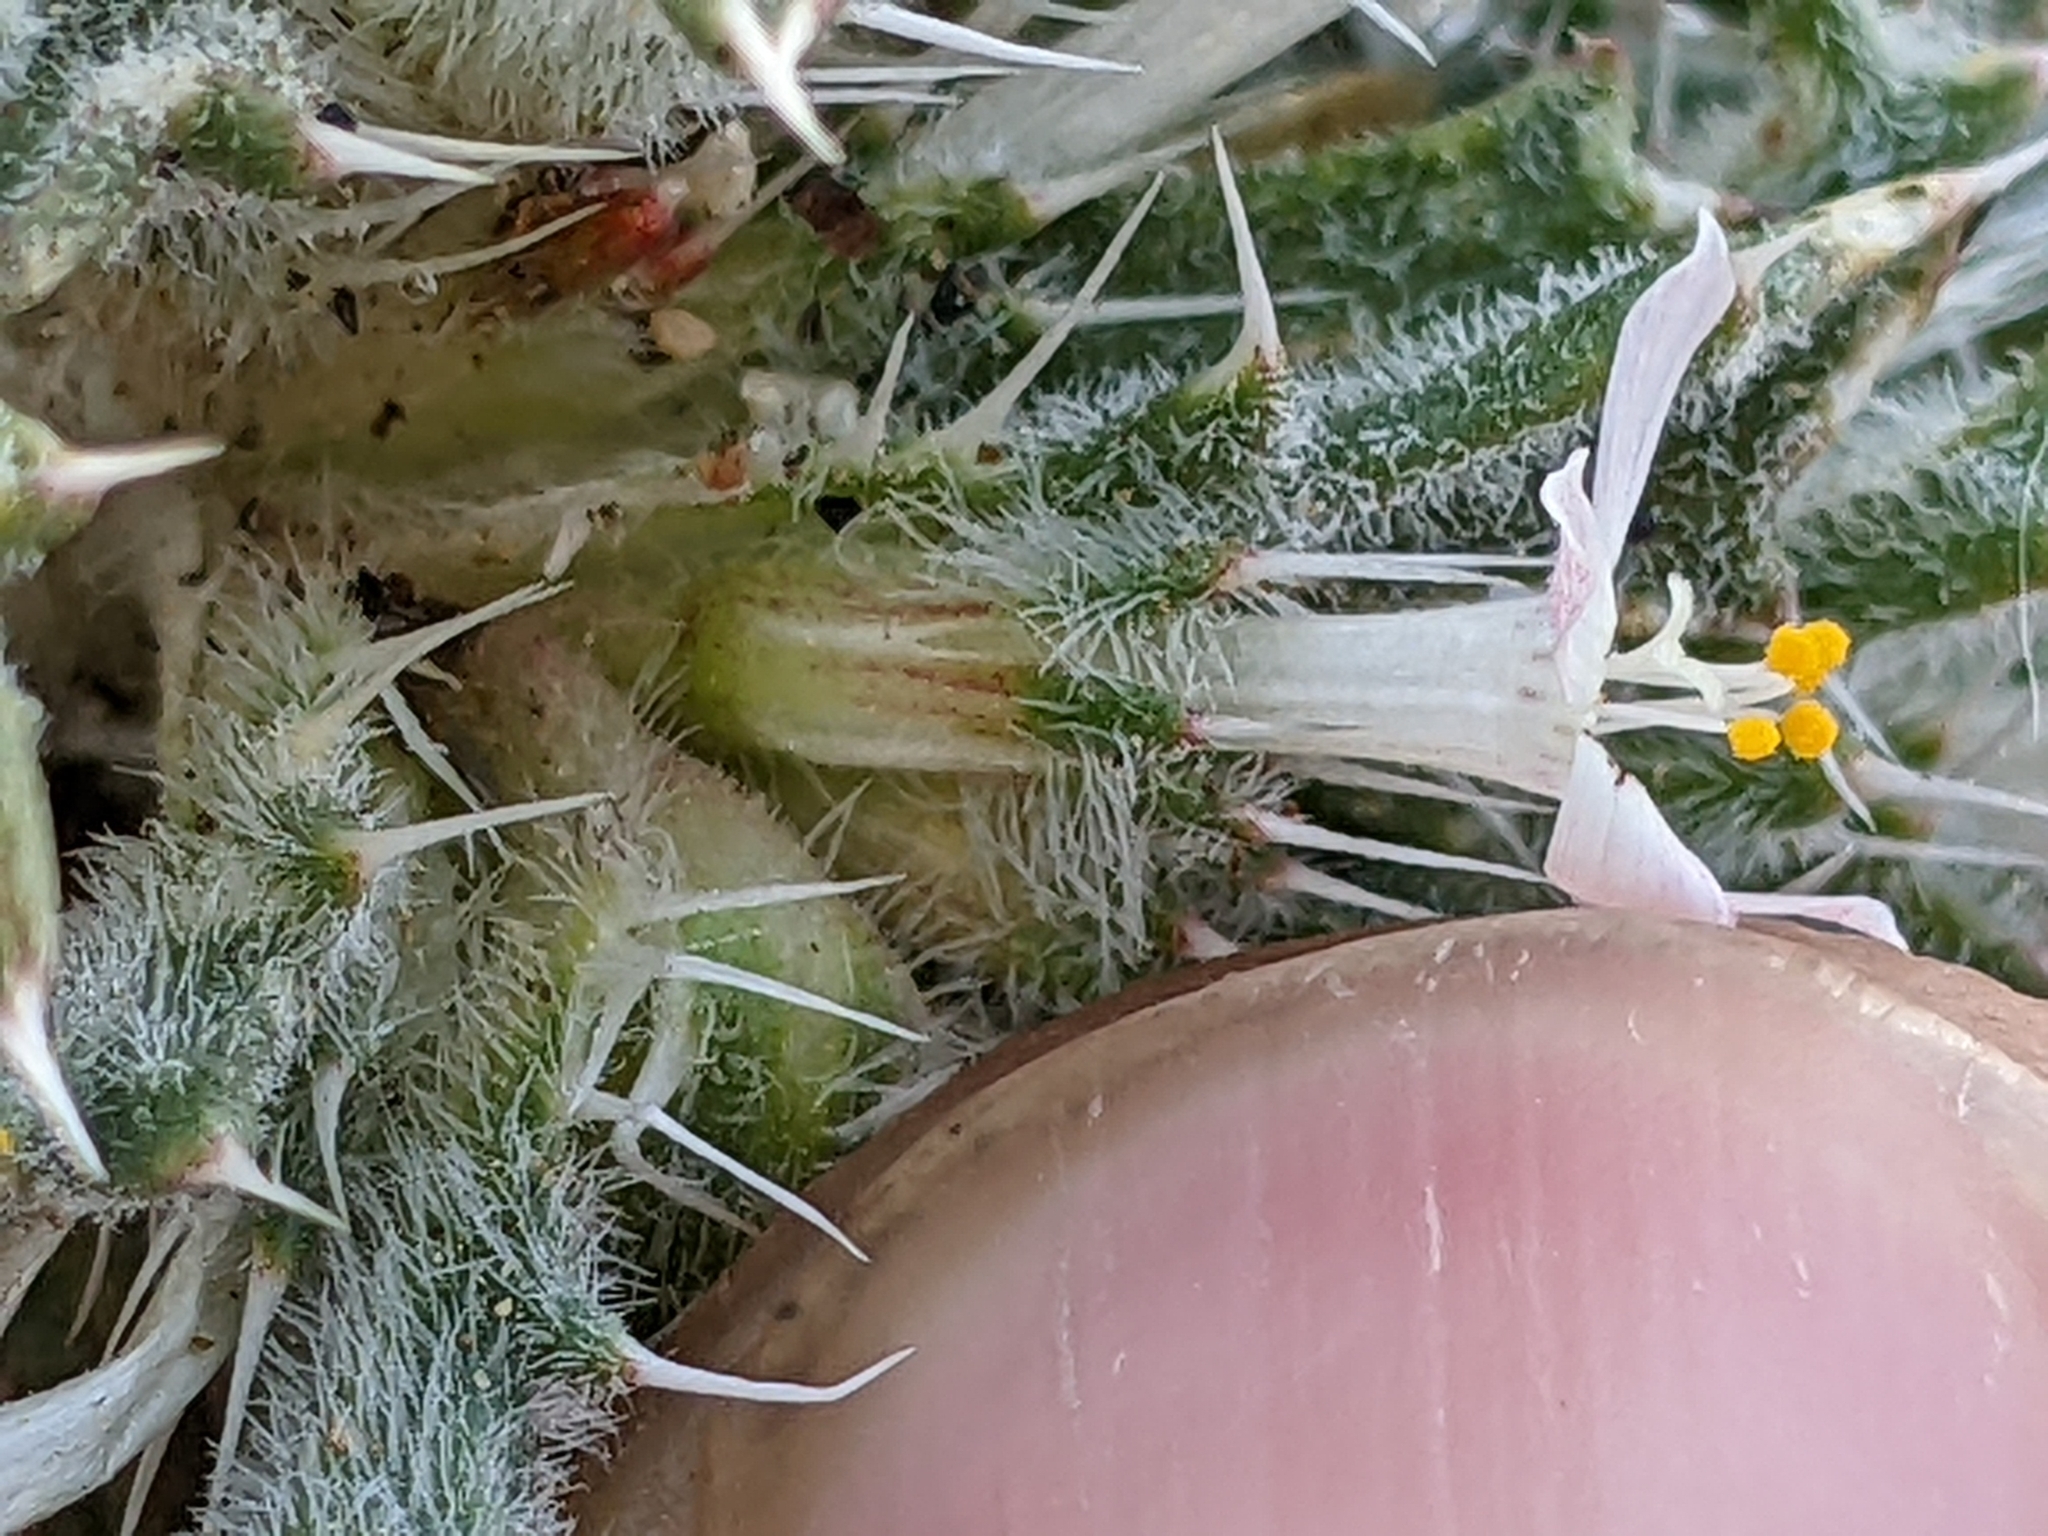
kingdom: Plantae
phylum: Tracheophyta
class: Magnoliopsida
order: Ericales
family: Polemoniaceae
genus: Loeseliastrum
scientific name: Loeseliastrum schottii
